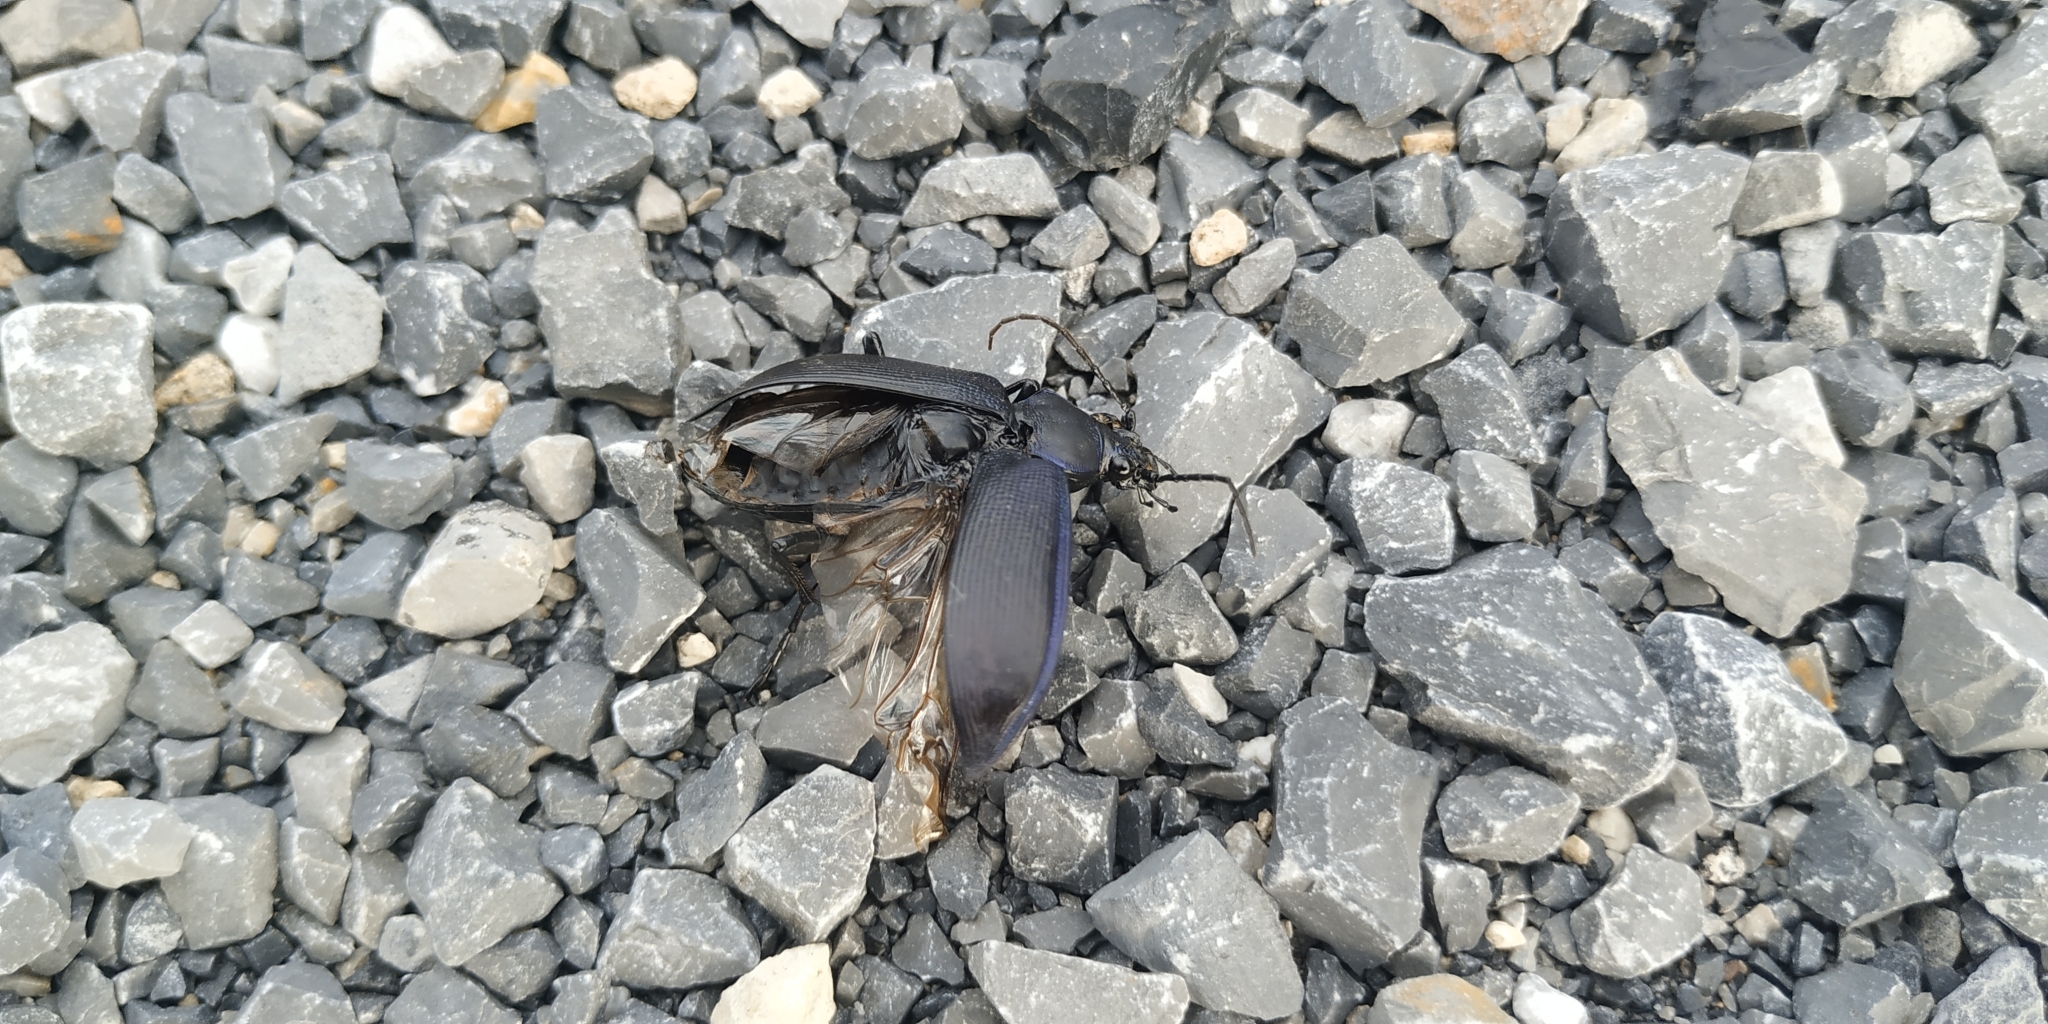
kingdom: Animalia
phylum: Arthropoda
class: Insecta
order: Coleoptera
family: Carabidae
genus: Calosoma
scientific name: Calosoma angulatum
